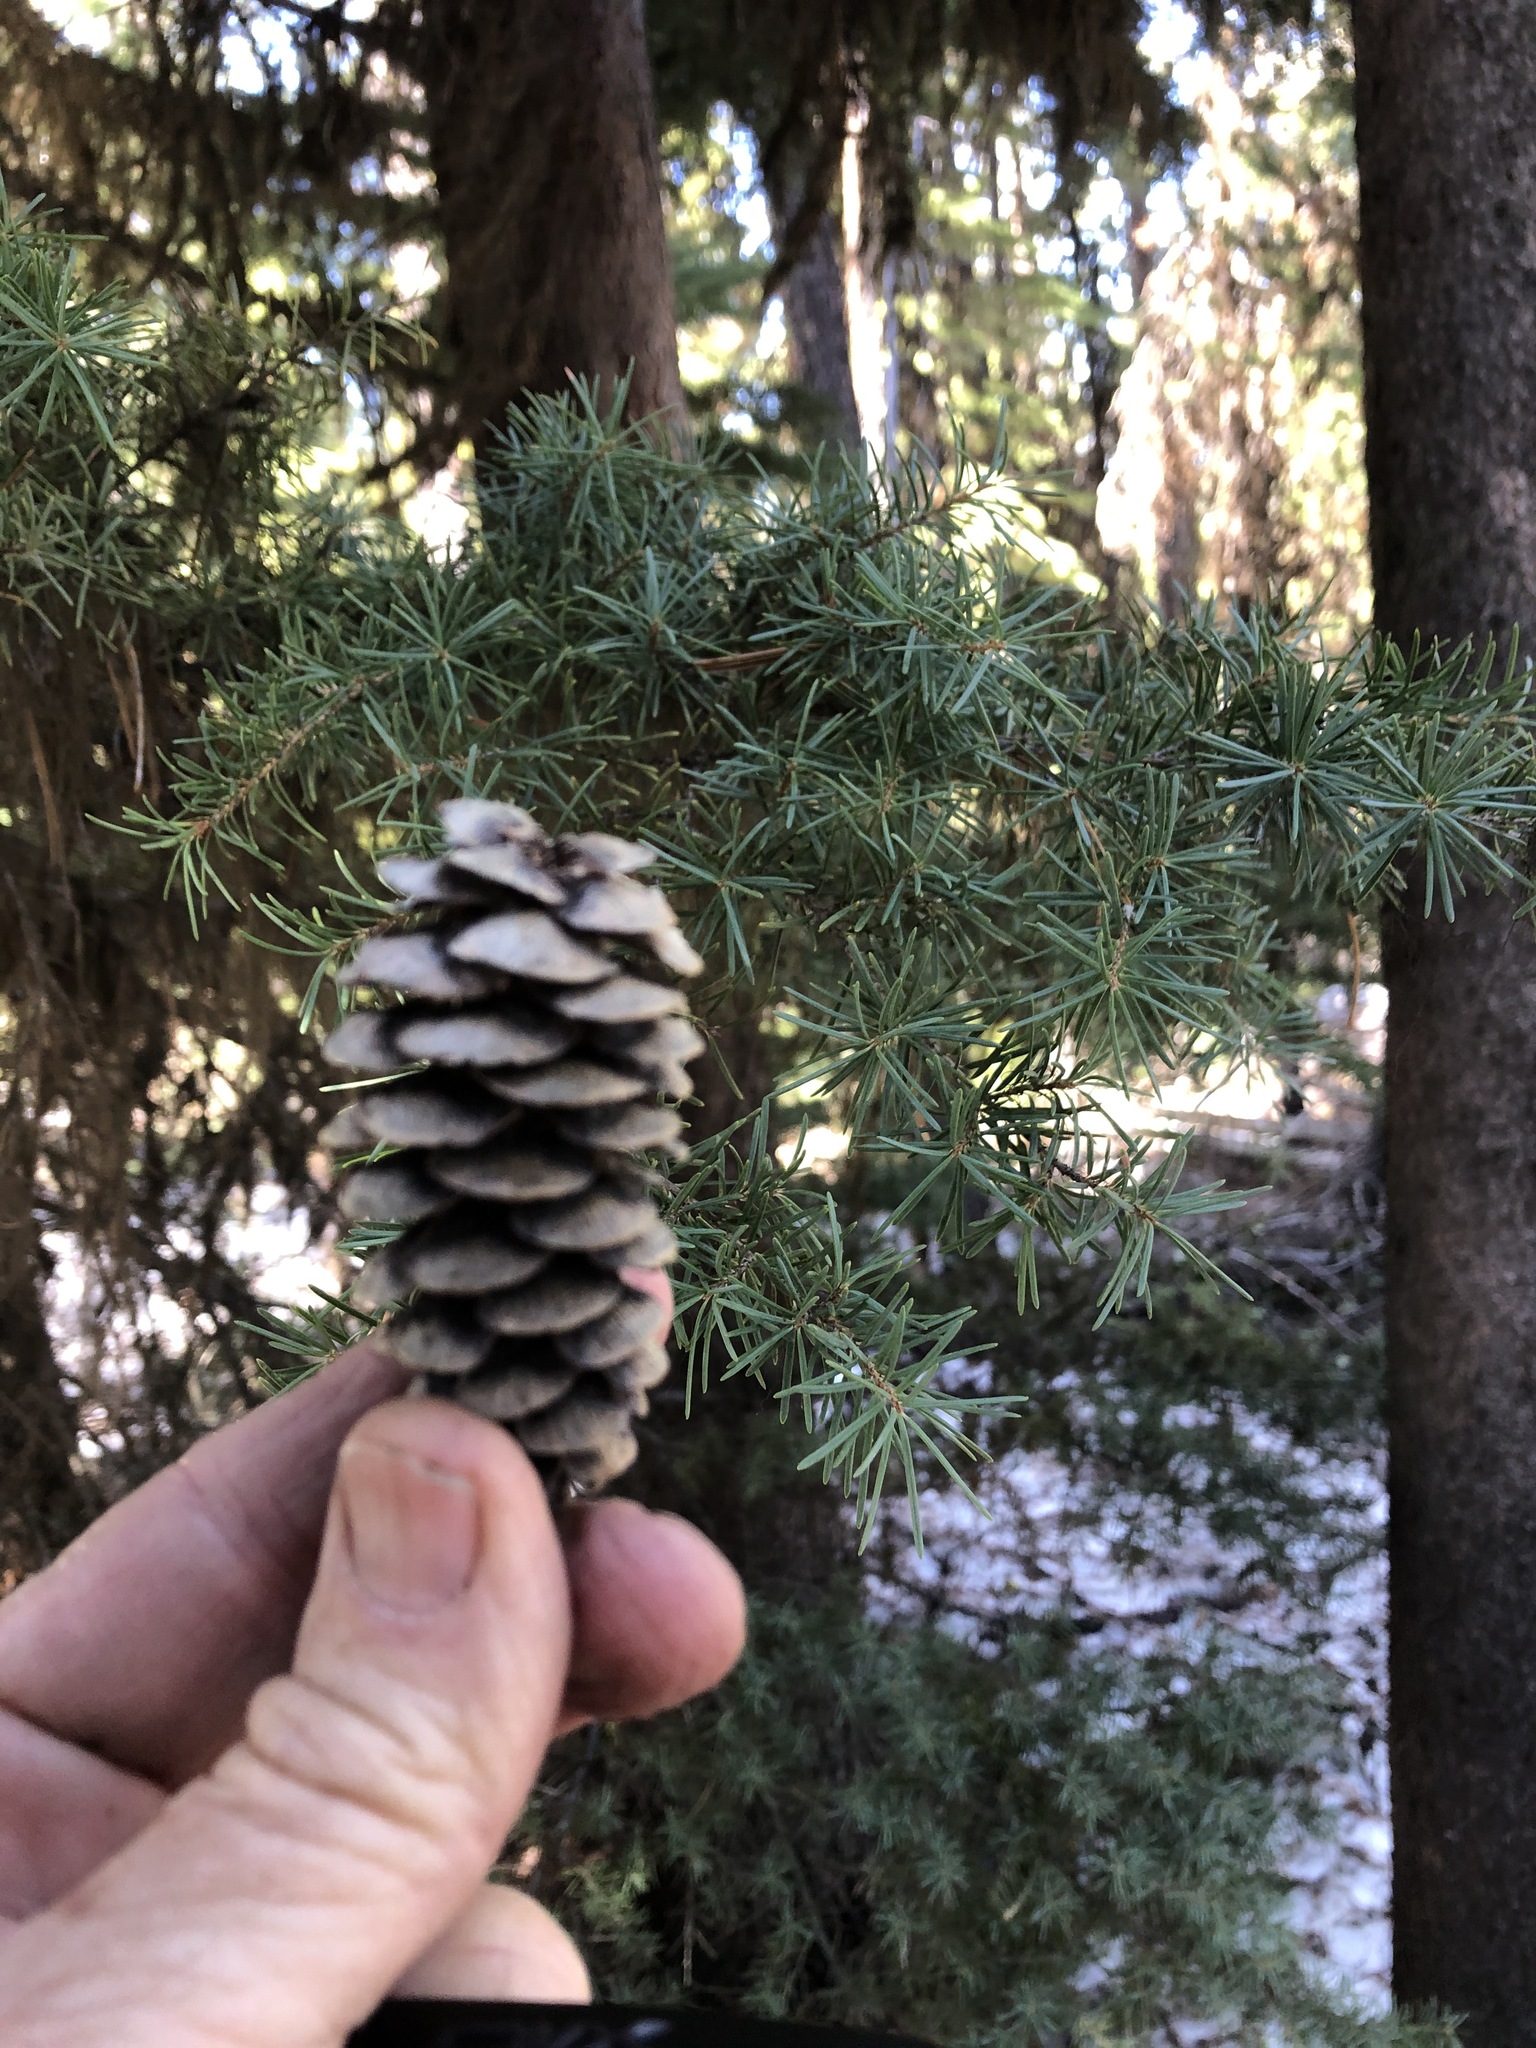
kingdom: Plantae
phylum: Tracheophyta
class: Pinopsida
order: Pinales
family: Pinaceae
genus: Tsuga
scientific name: Tsuga mertensiana
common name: Mountain hemlock
